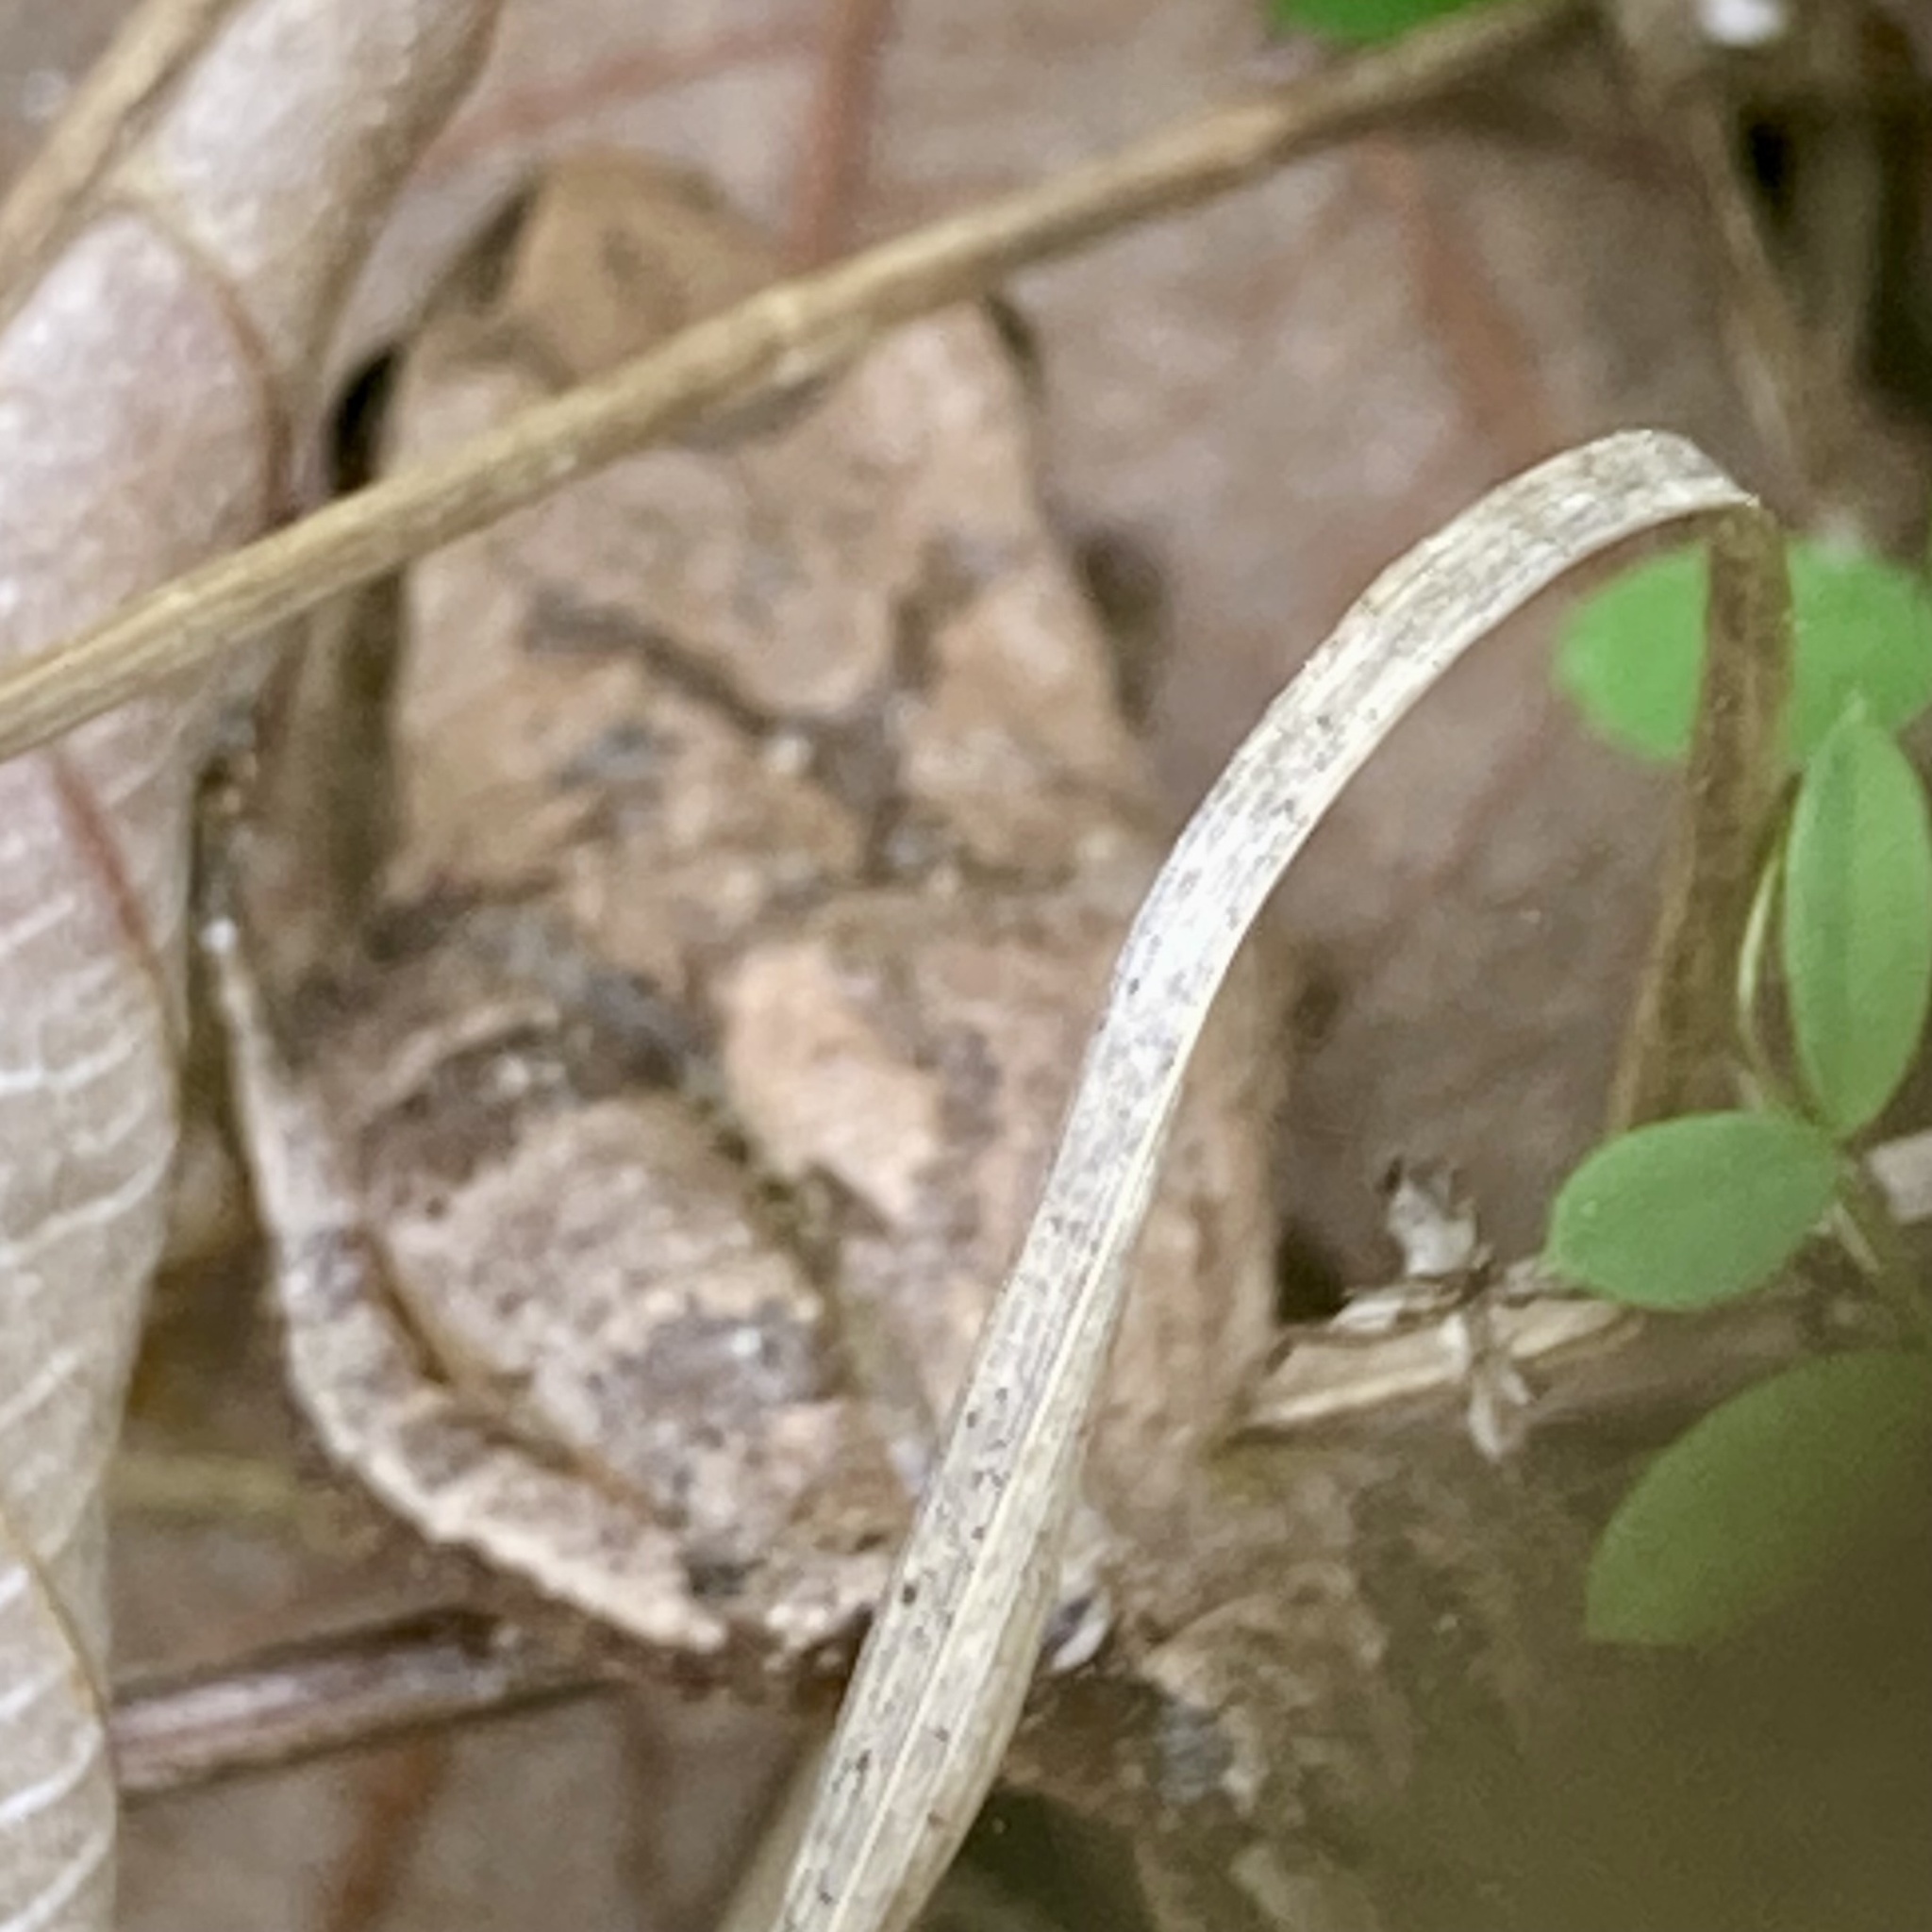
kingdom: Animalia
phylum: Chordata
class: Amphibia
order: Anura
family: Hylidae
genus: Pseudacris
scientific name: Pseudacris crucifer
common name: Spring peeper
